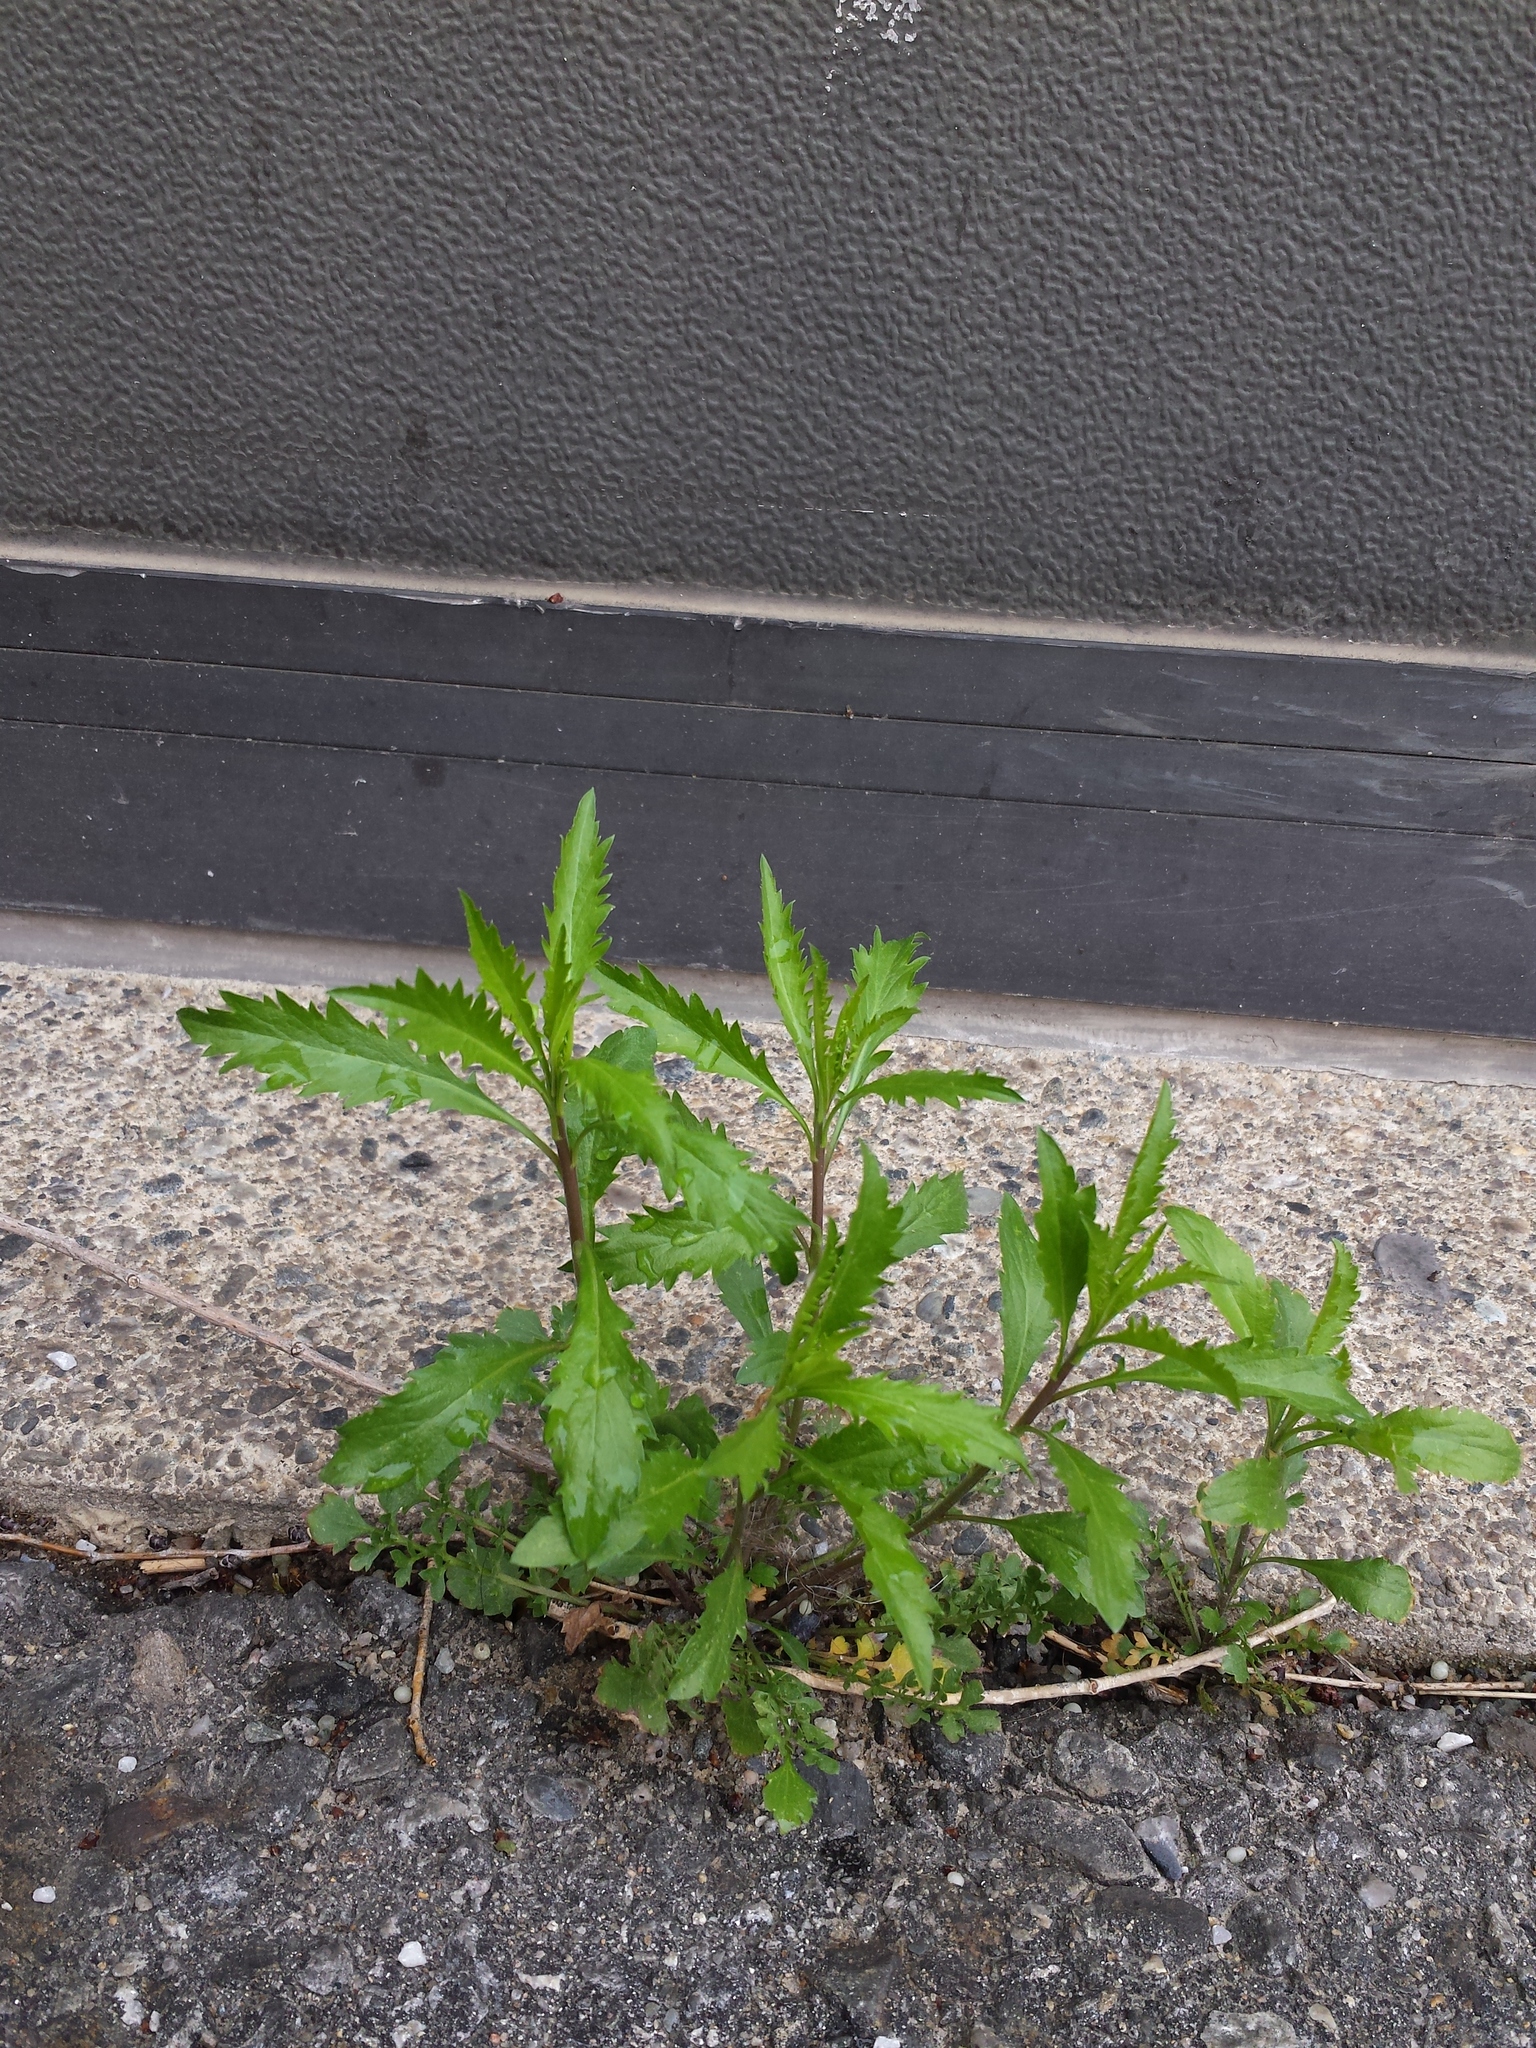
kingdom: Plantae
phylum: Tracheophyta
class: Magnoliopsida
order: Brassicales
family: Brassicaceae
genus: Lepidium
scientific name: Lepidium virginicum
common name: Least pepperwort
